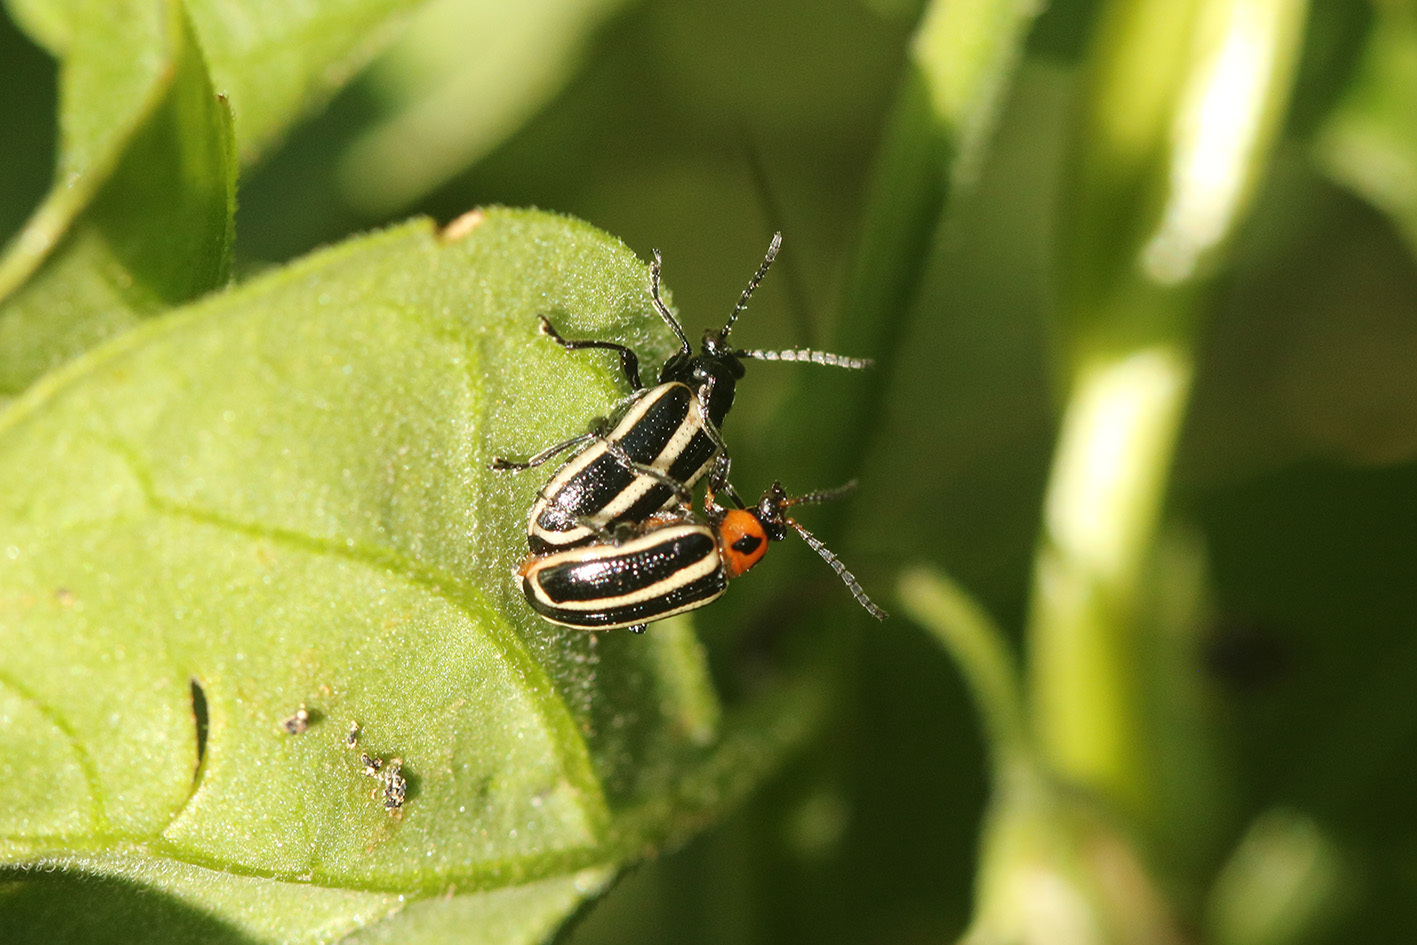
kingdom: Animalia
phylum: Arthropoda
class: Insecta
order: Coleoptera
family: Chrysomelidae
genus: Lema
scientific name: Lema bilineata
